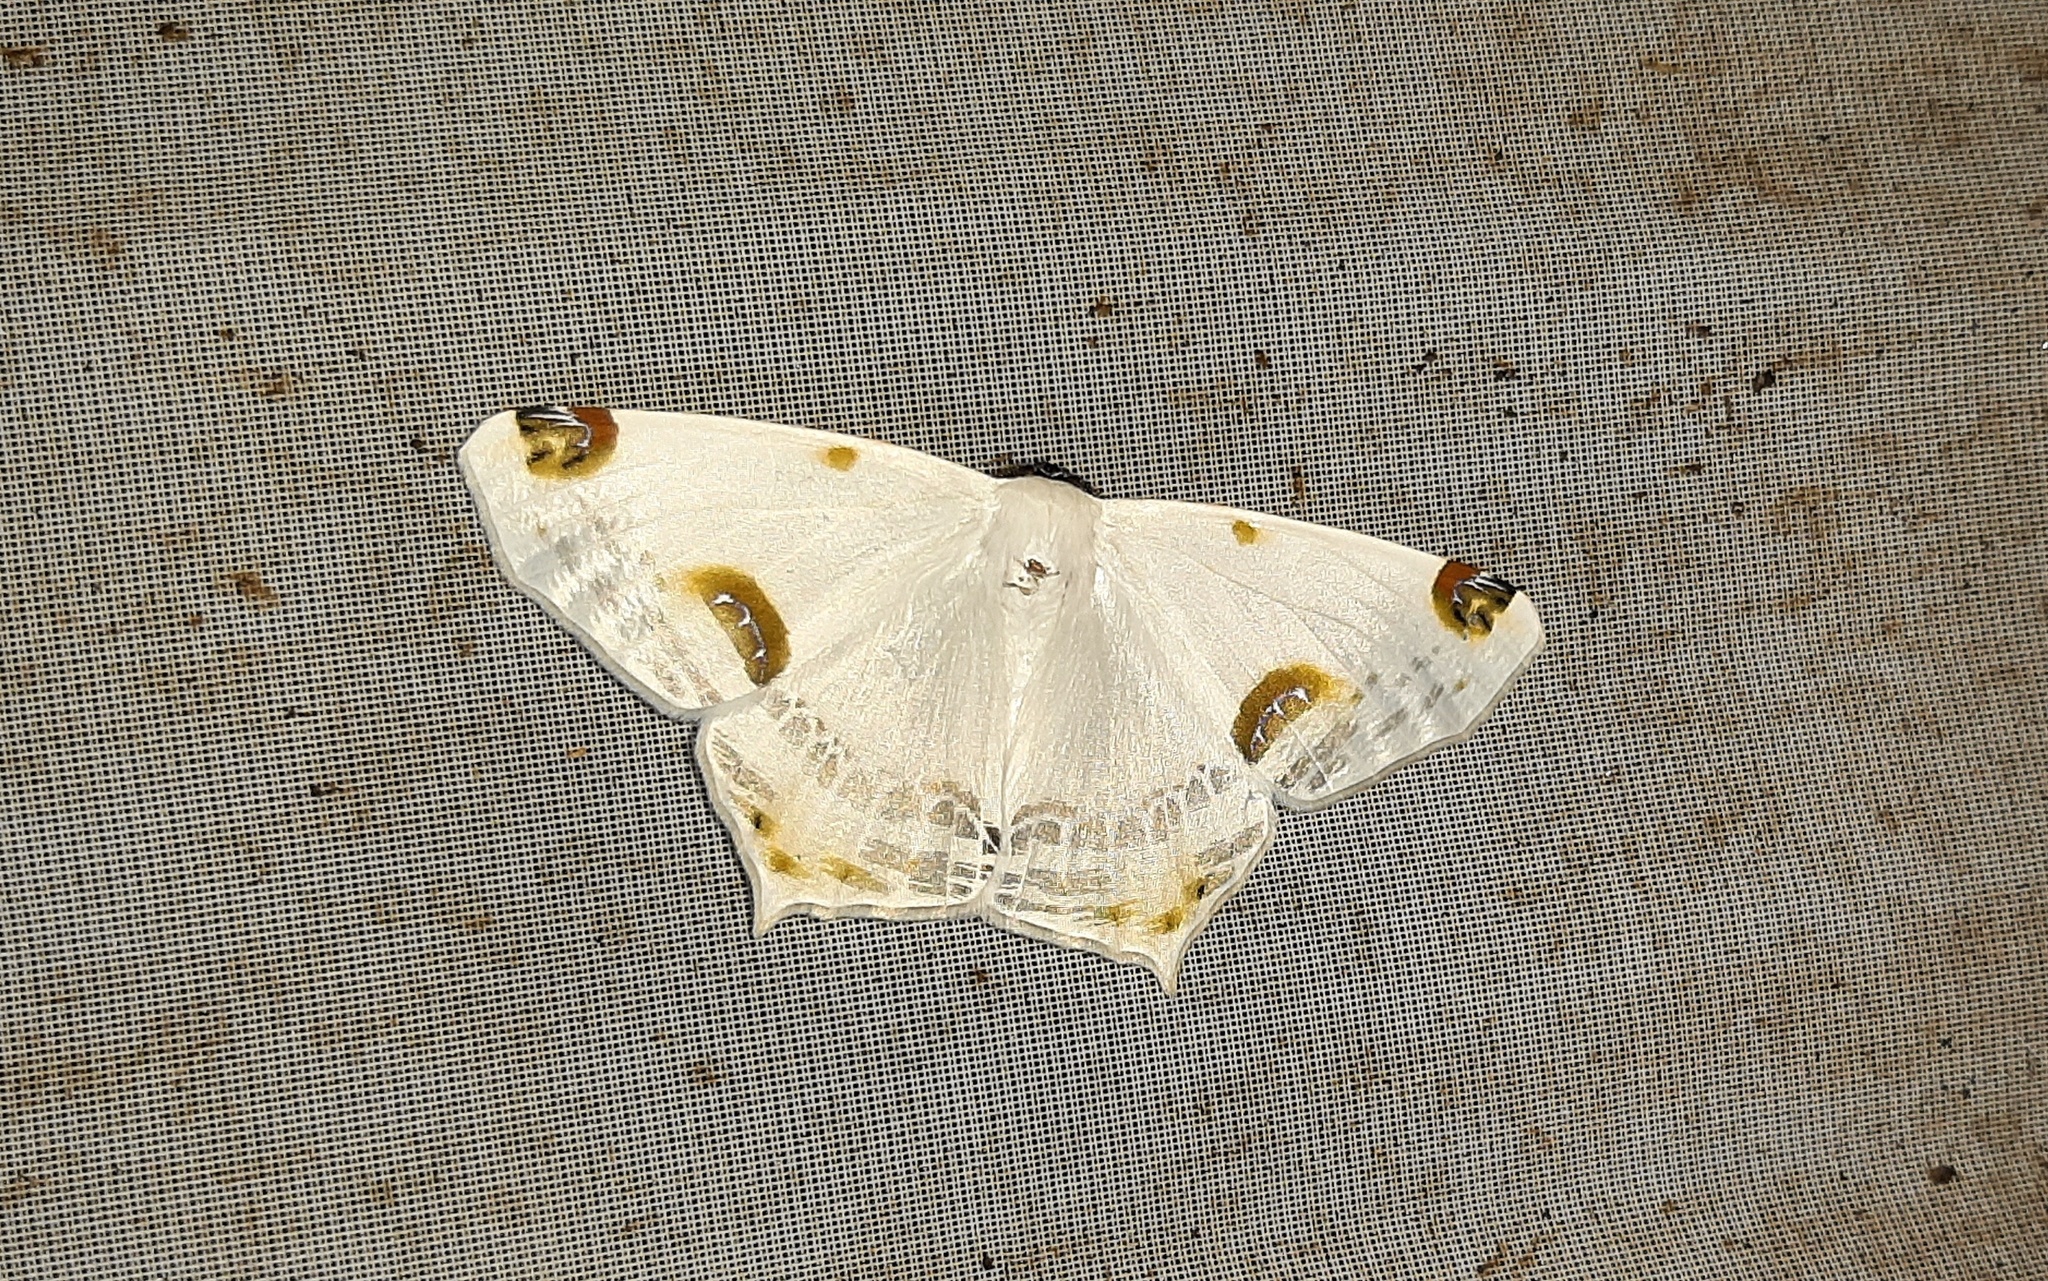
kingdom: Animalia
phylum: Arthropoda
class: Insecta
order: Lepidoptera
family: Geometridae
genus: Sericoptera
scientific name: Sericoptera mahometaria
